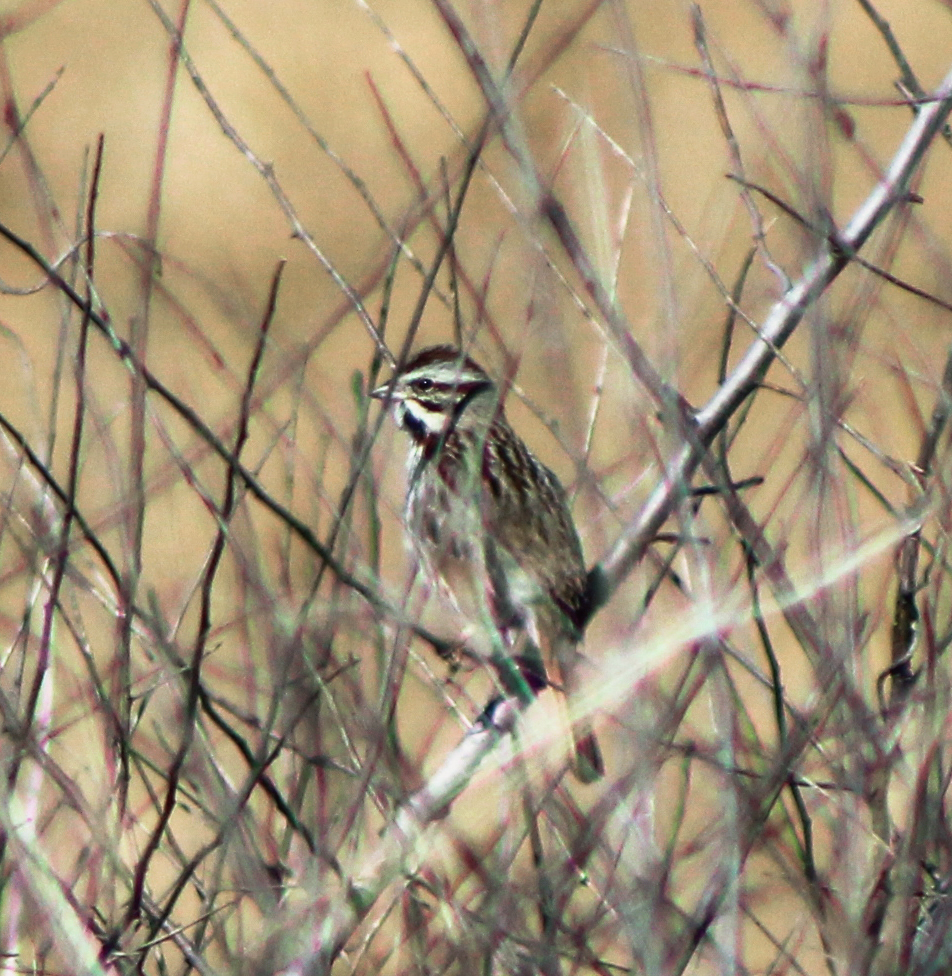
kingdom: Animalia
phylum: Chordata
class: Aves
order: Passeriformes
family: Passerellidae
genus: Melospiza
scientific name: Melospiza melodia
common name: Song sparrow
